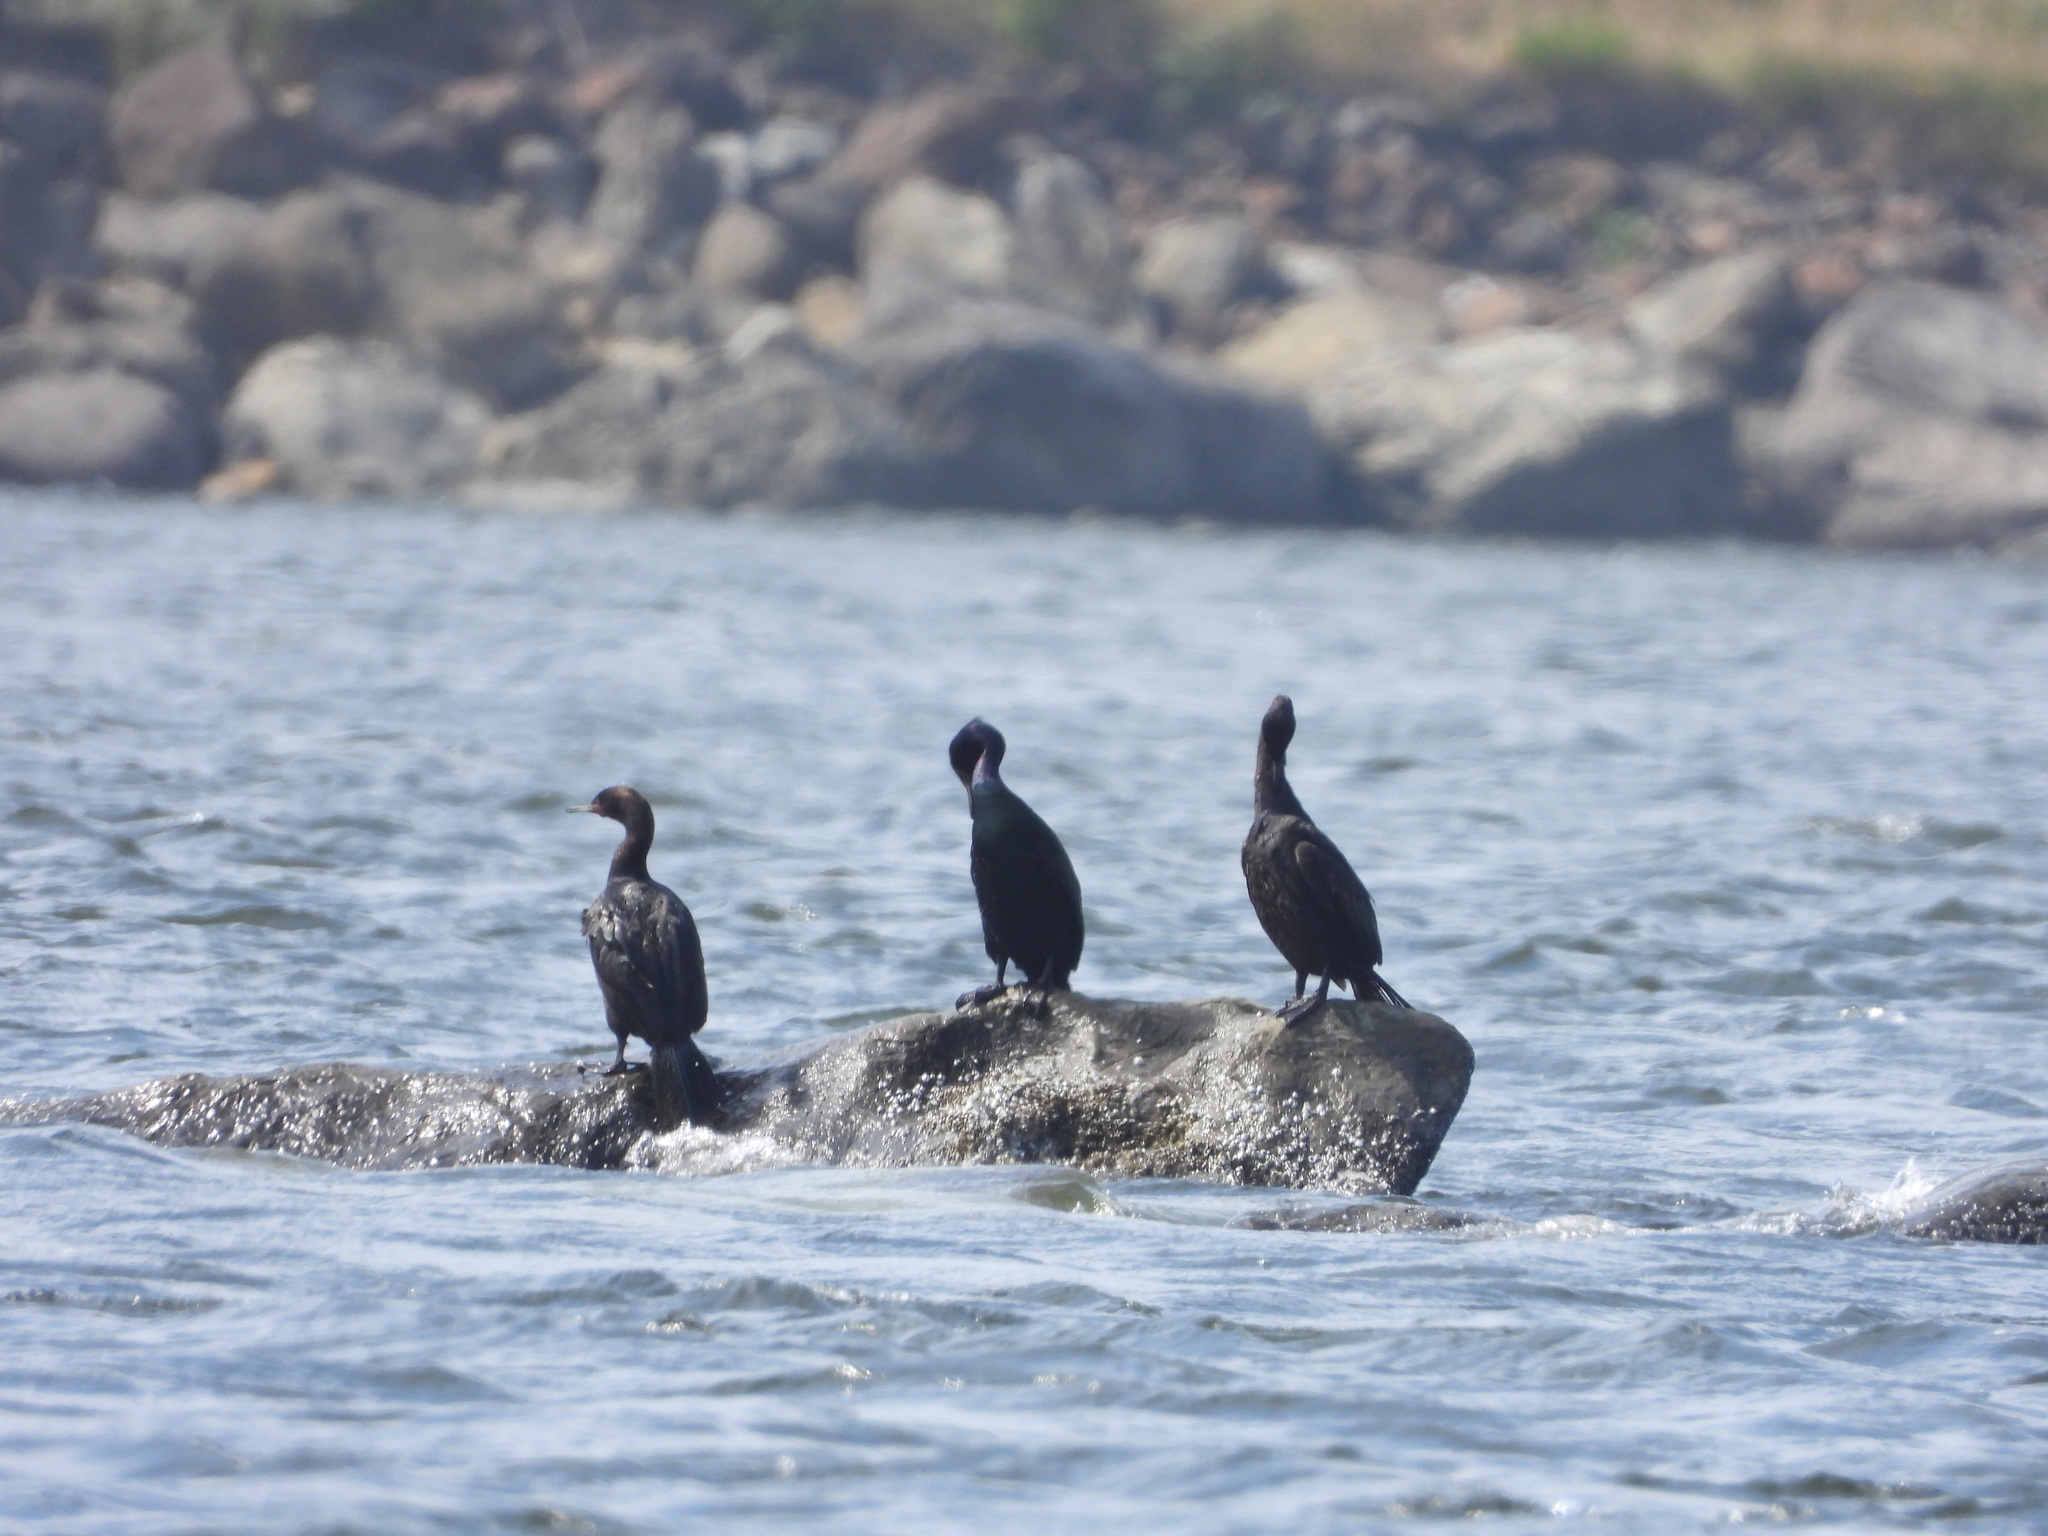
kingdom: Animalia
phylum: Chordata
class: Aves
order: Suliformes
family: Phalacrocoracidae
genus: Phalacrocorax
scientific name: Phalacrocorax pelagicus
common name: Pelagic cormorant
